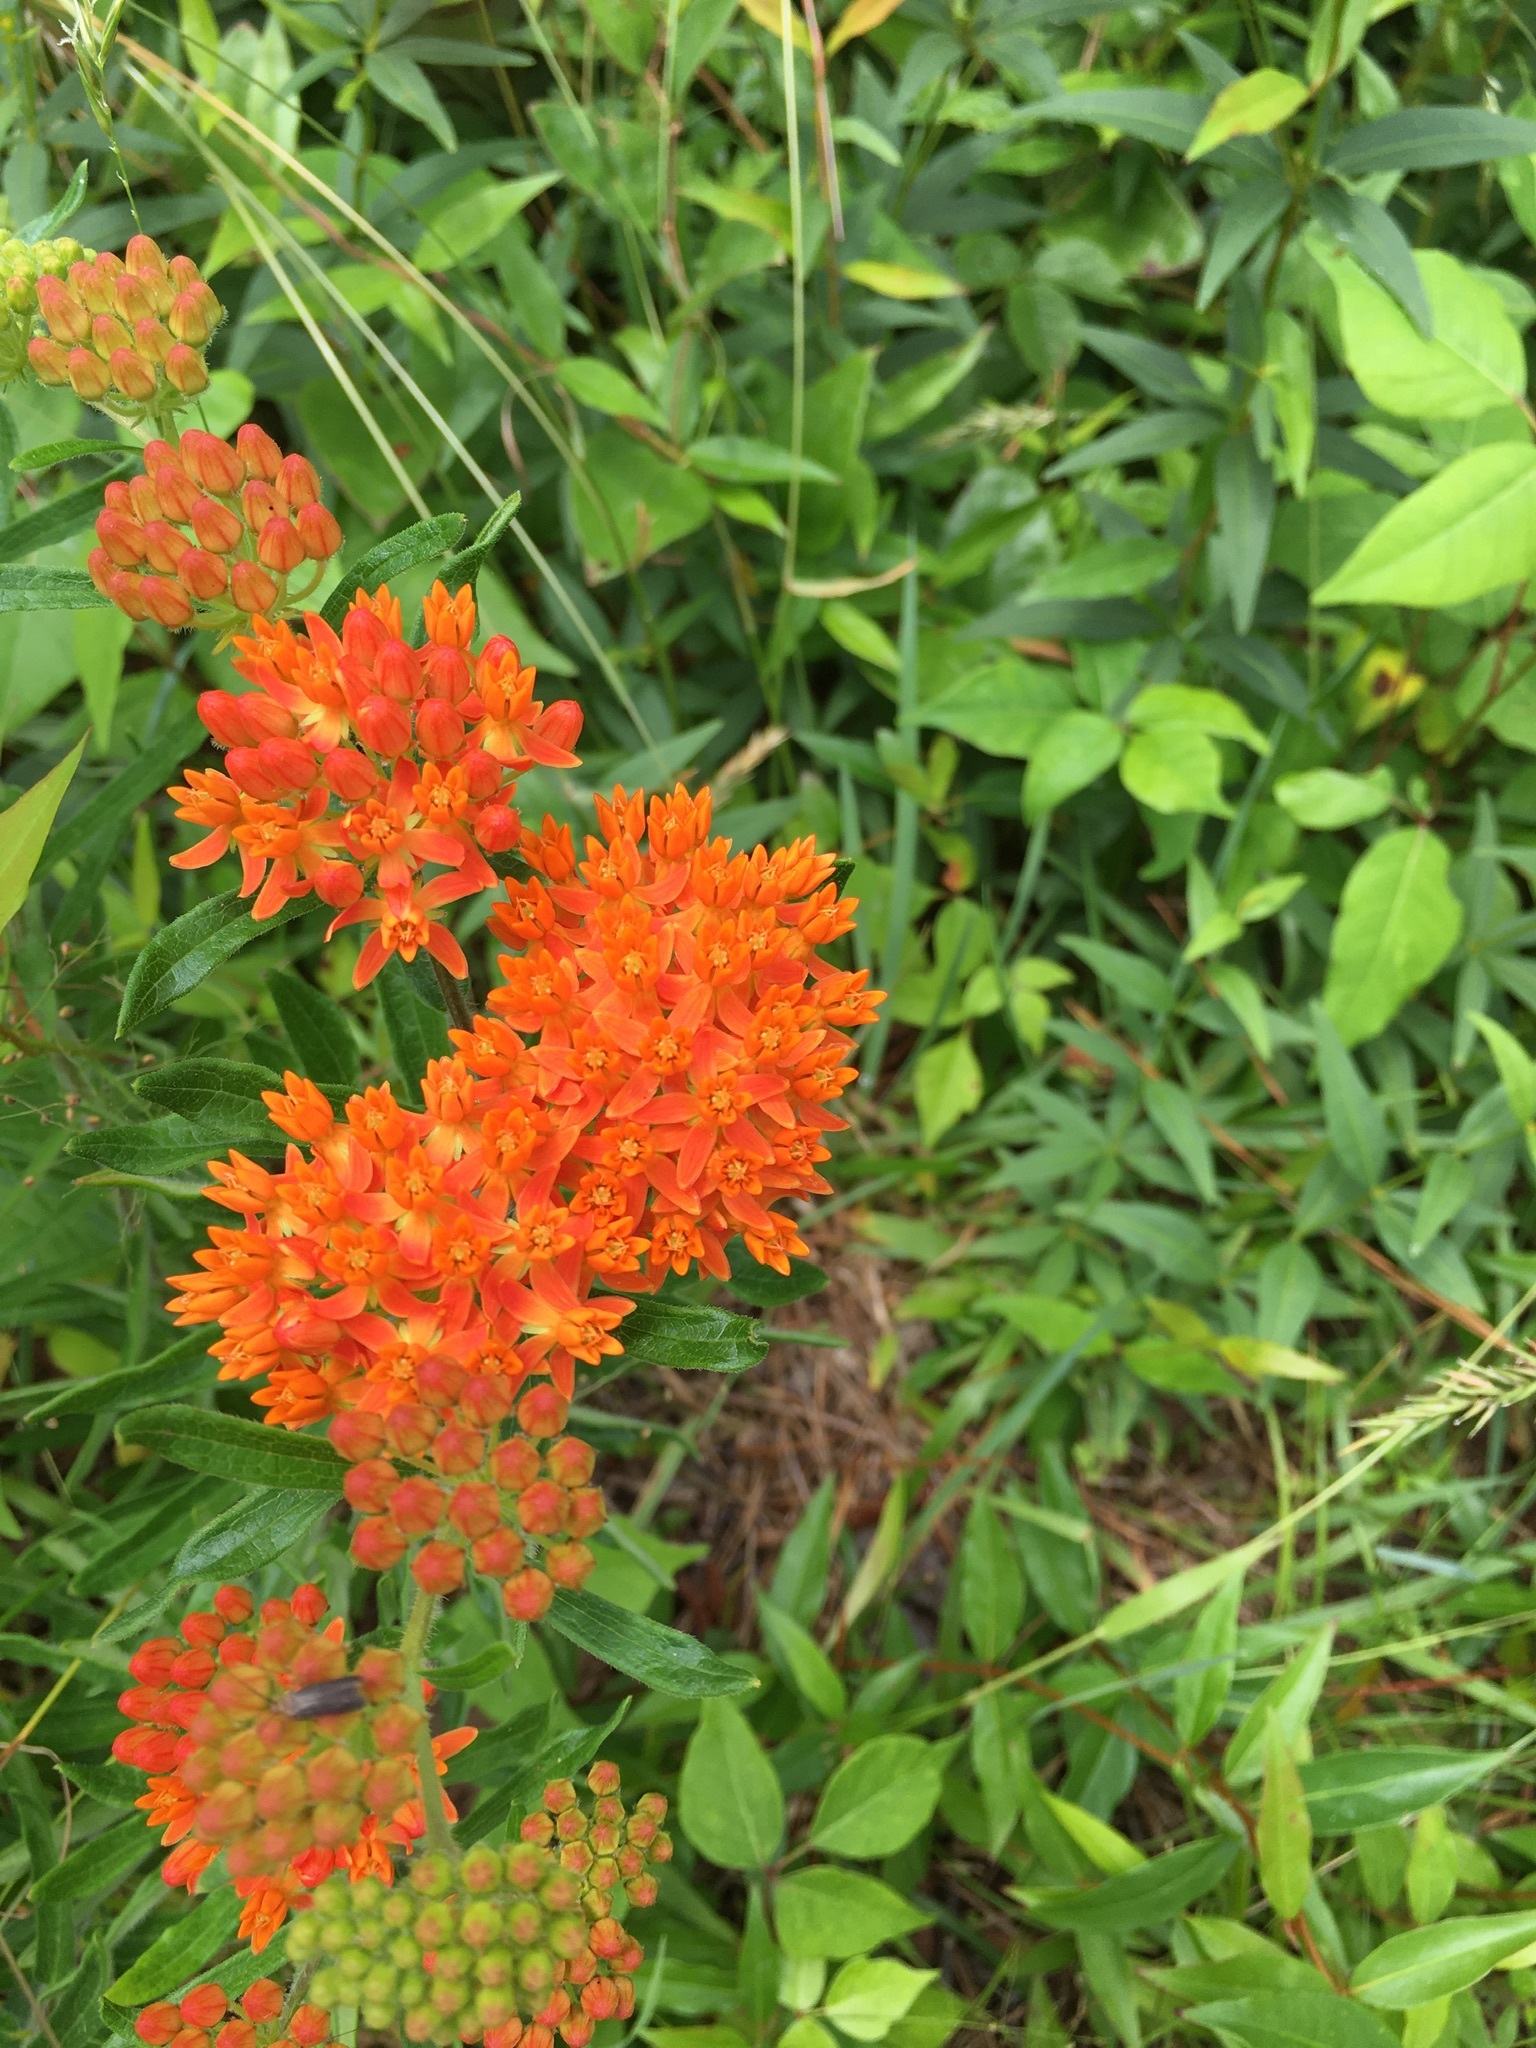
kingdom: Plantae
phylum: Tracheophyta
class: Magnoliopsida
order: Gentianales
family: Apocynaceae
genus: Asclepias
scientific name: Asclepias tuberosa
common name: Butterfly milkweed
